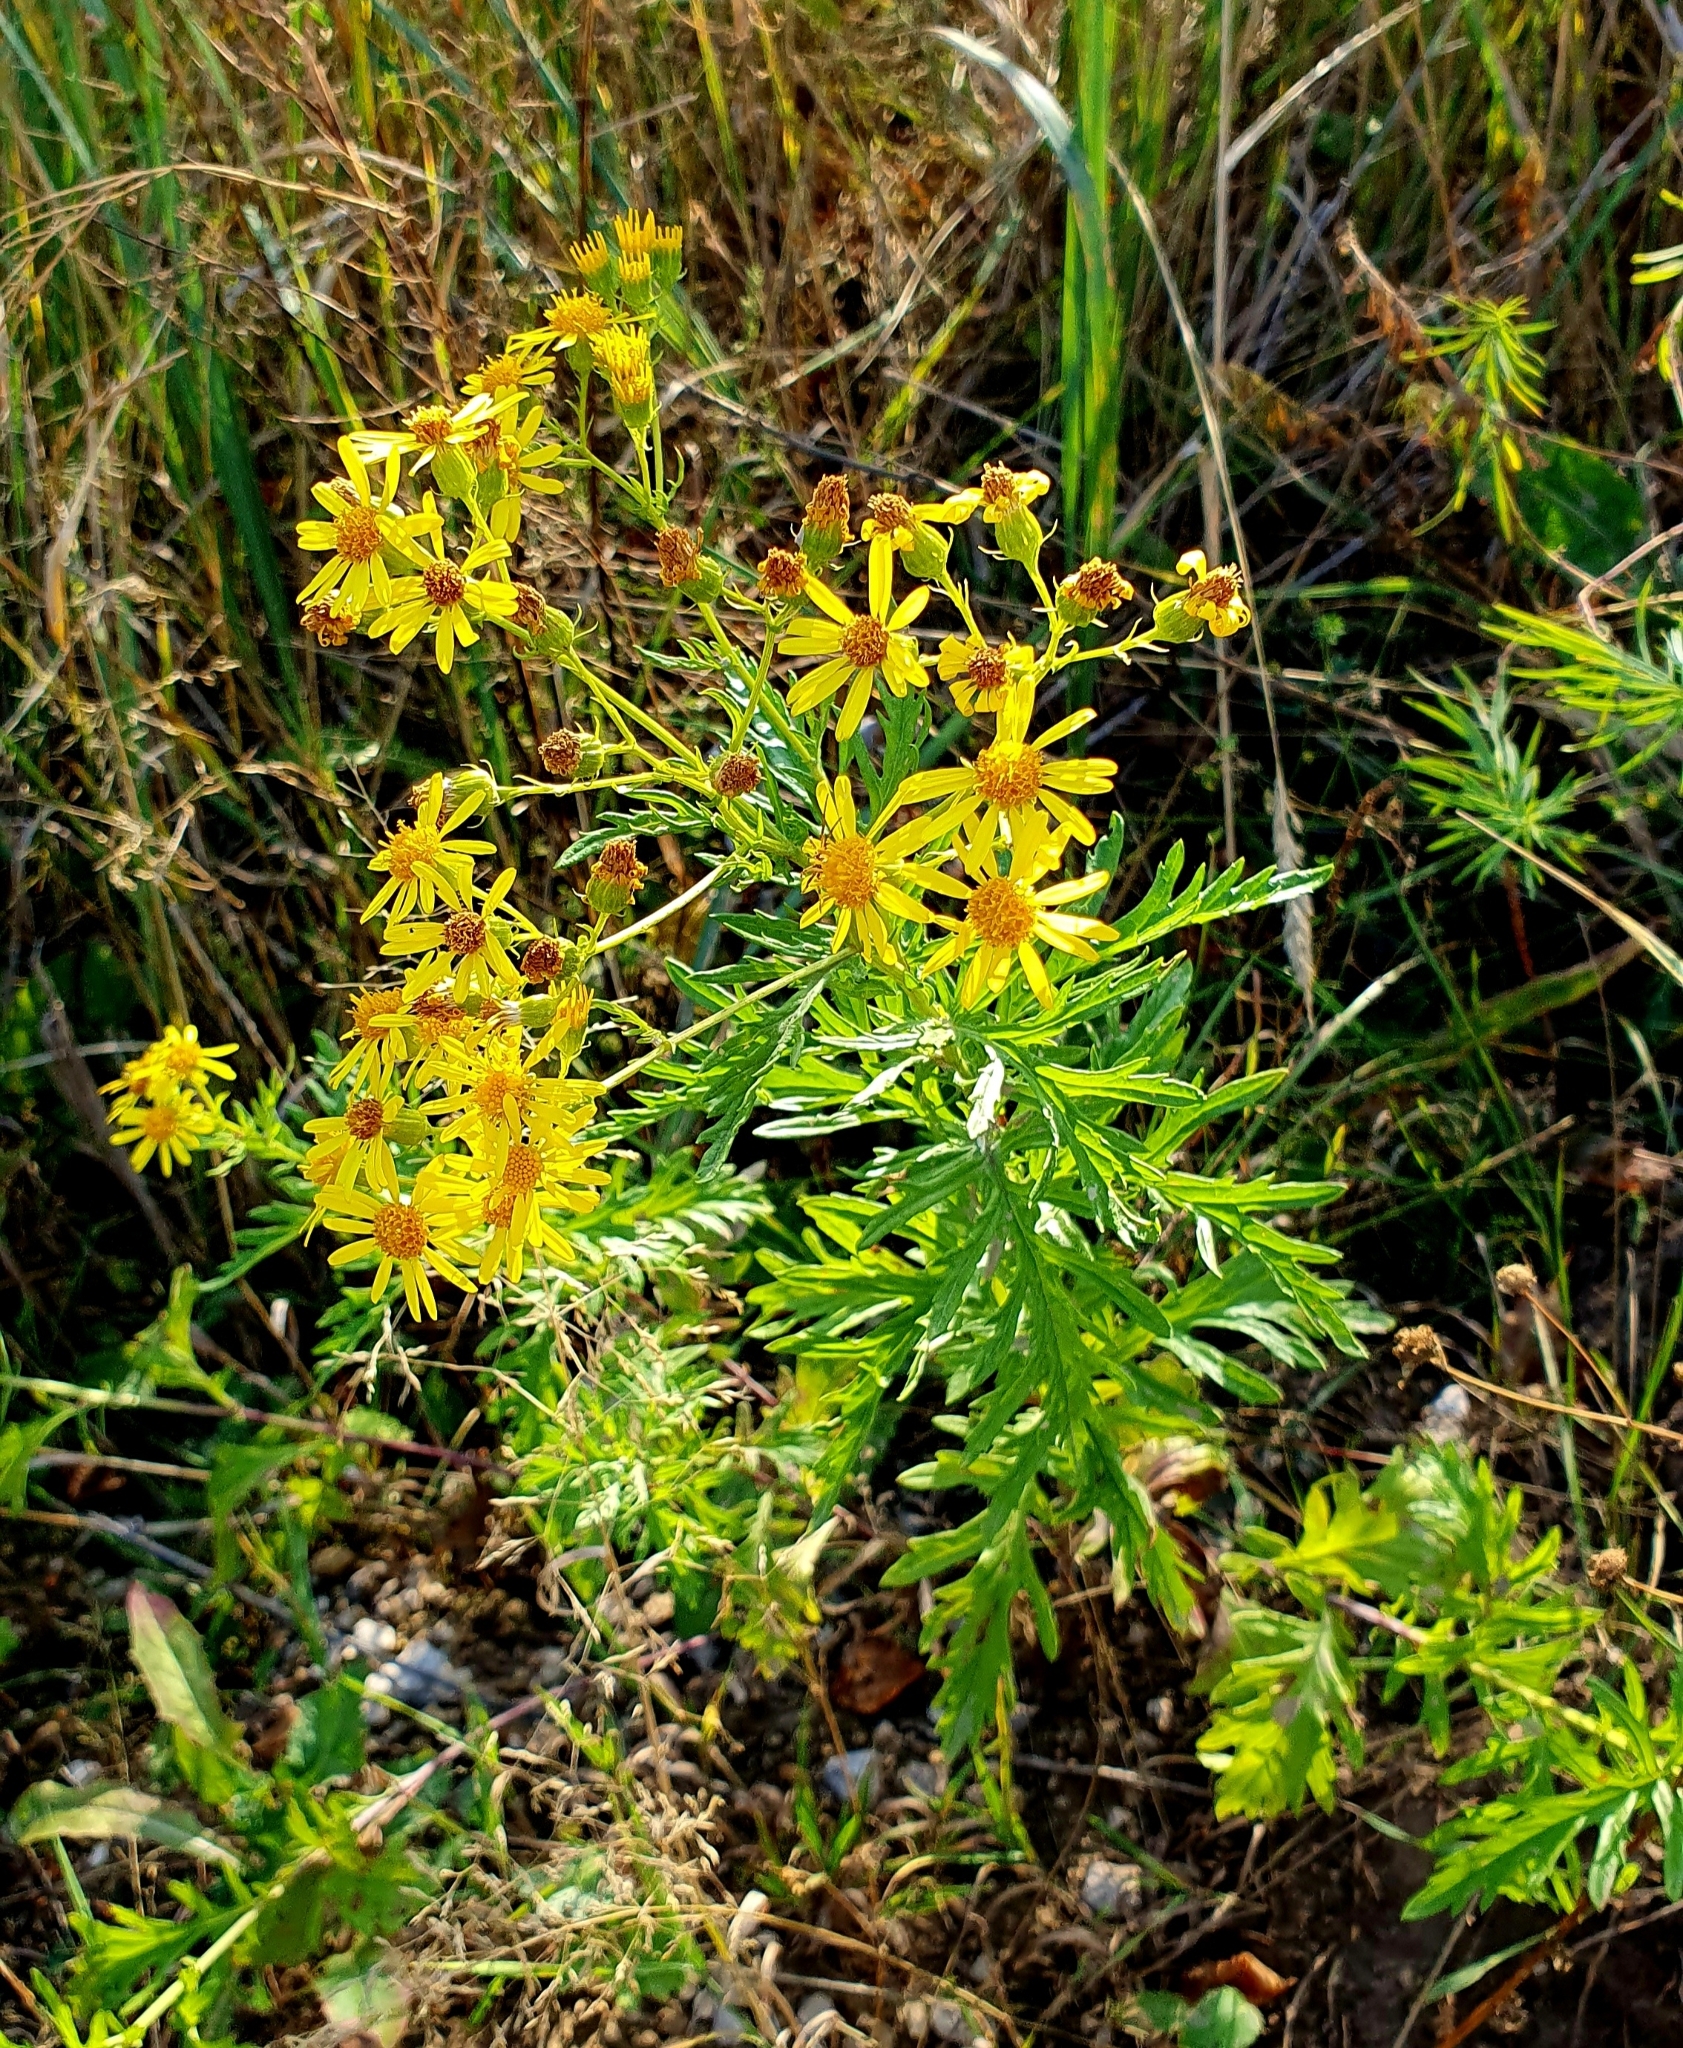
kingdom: Plantae
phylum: Tracheophyta
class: Magnoliopsida
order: Asterales
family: Asteraceae
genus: Jacobaea
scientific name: Jacobaea erucifolia
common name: Hoary ragwort
